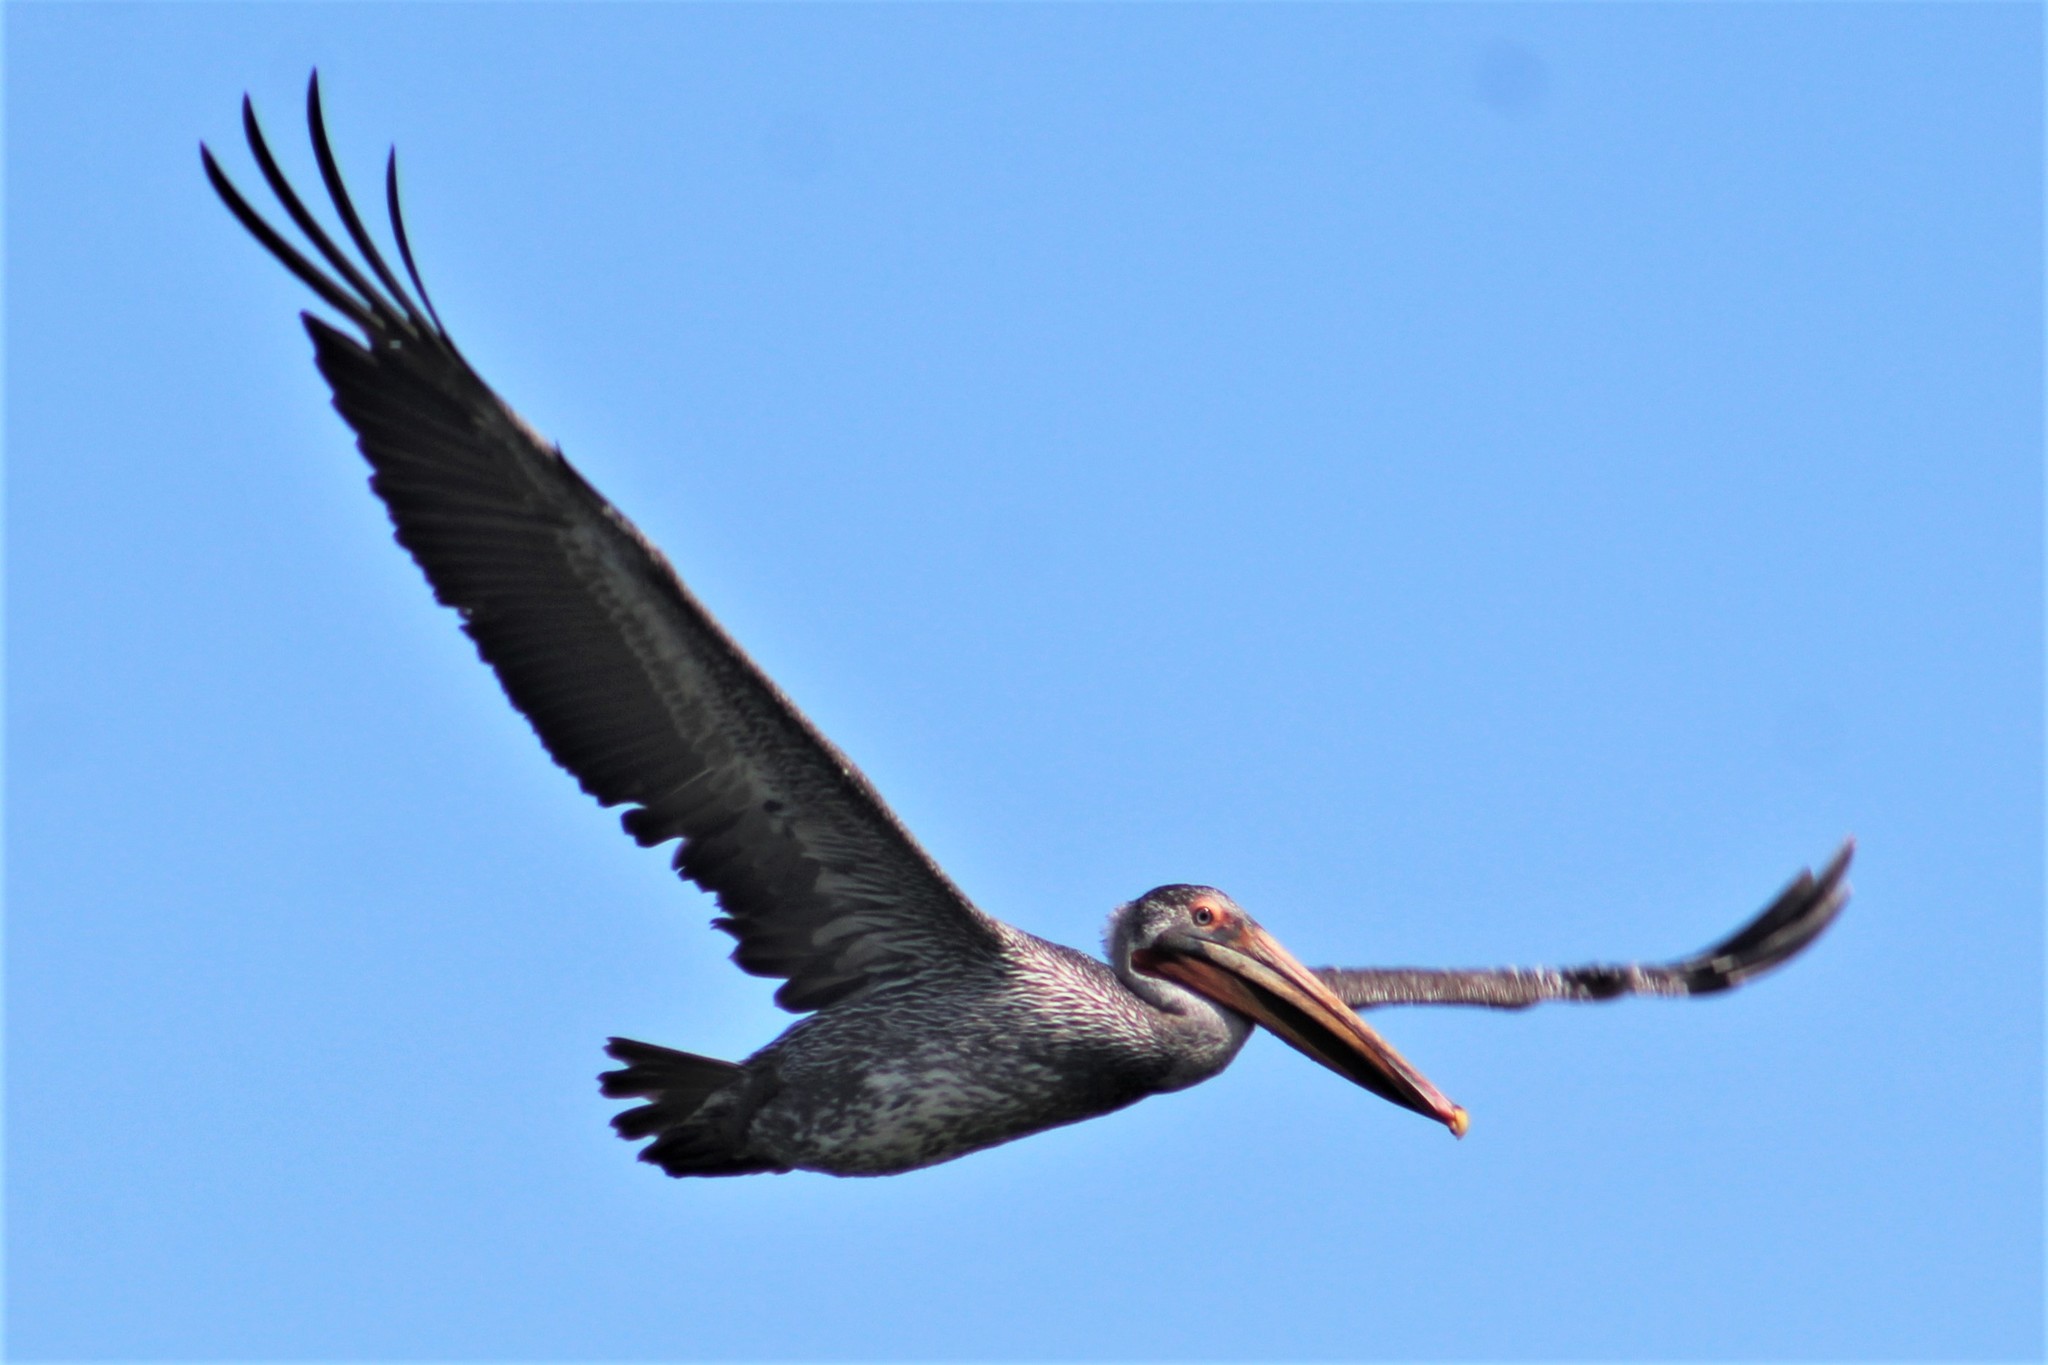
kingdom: Animalia
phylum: Chordata
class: Aves
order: Pelecaniformes
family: Pelecanidae
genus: Pelecanus
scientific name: Pelecanus occidentalis
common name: Brown pelican
